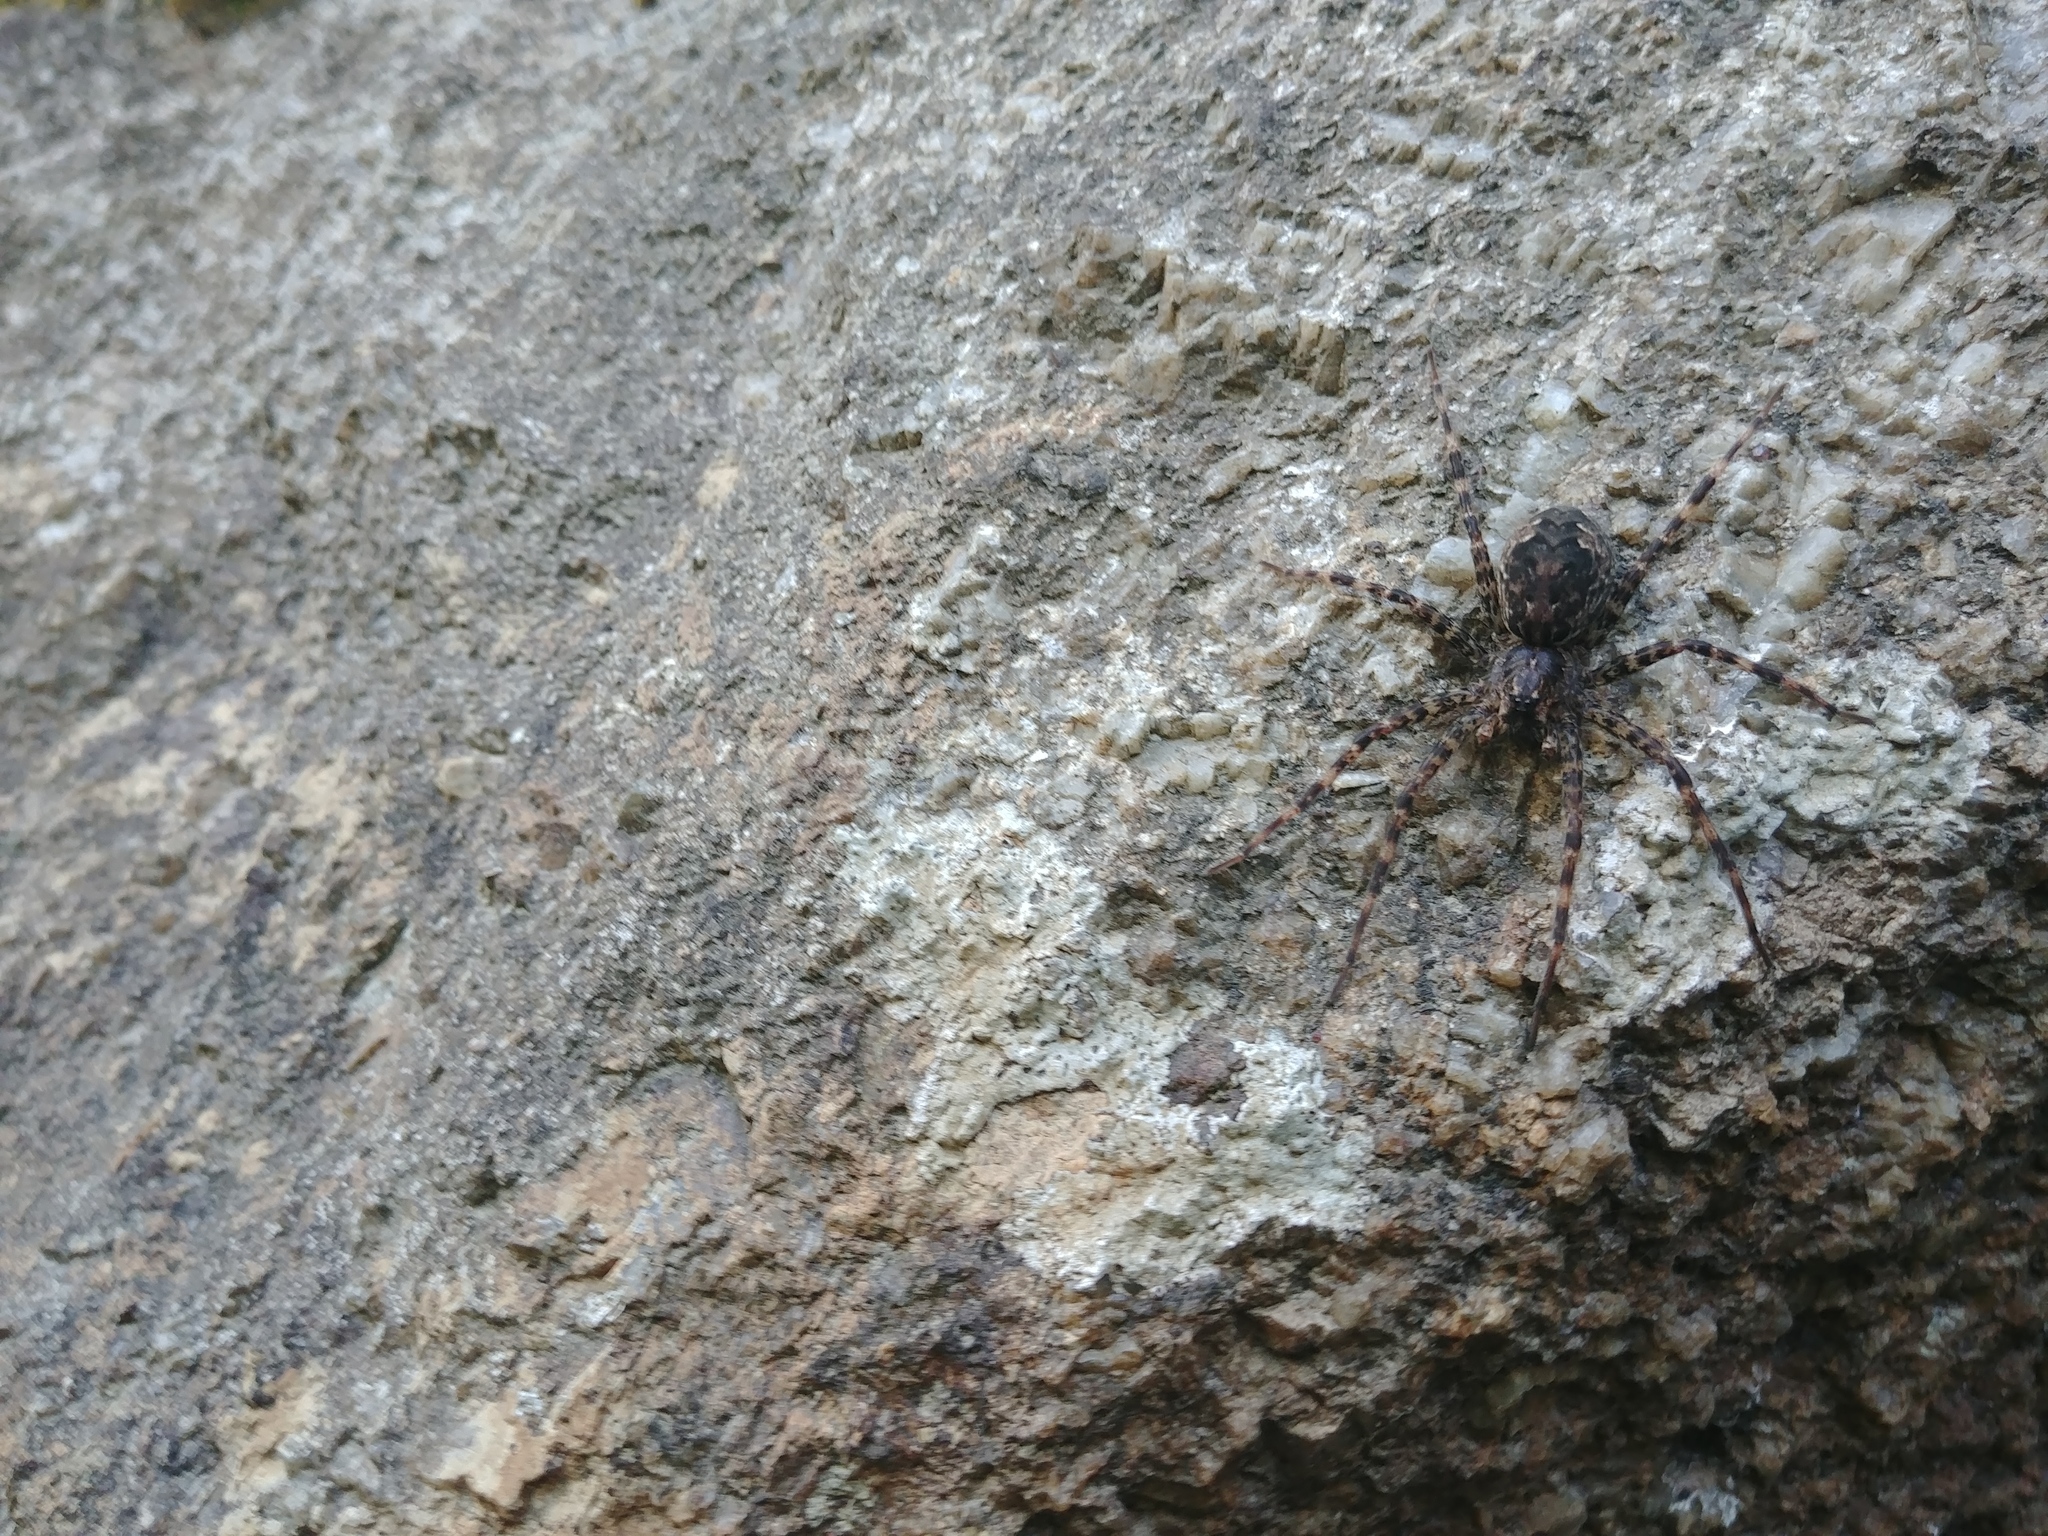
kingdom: Animalia
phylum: Arthropoda
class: Arachnida
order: Araneae
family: Pisauridae
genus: Dolomedes
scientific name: Dolomedes tenebrosus
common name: Dark fishing spider
